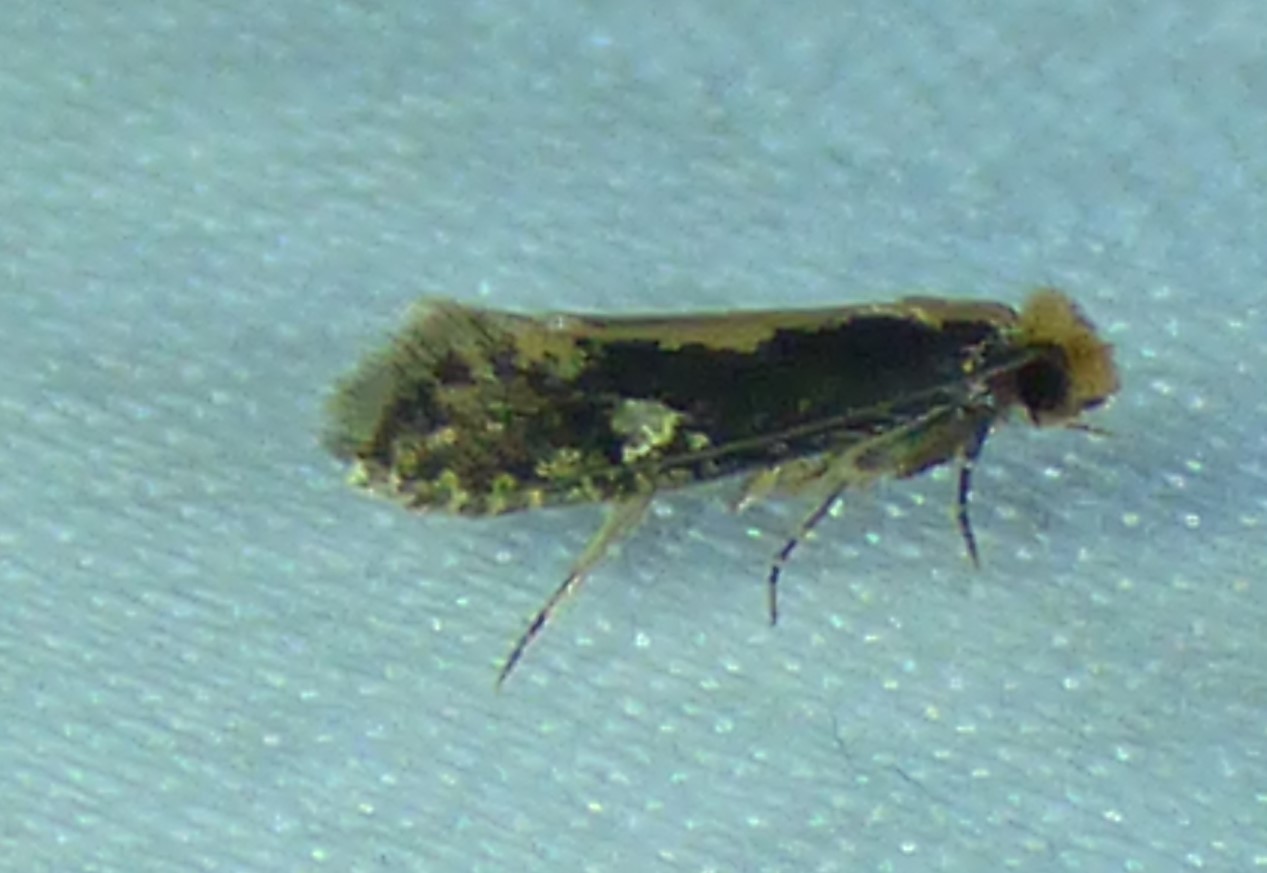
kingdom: Animalia
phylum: Arthropoda
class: Insecta
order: Lepidoptera
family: Tineidae
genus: Monopis
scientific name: Monopis crocicapitella
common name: Moth
